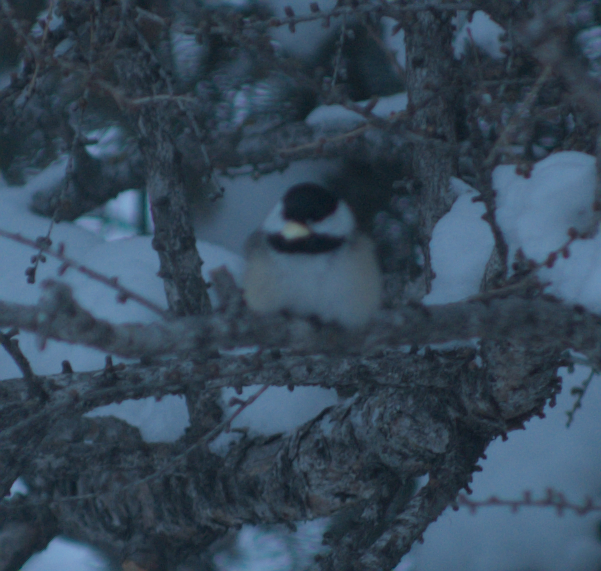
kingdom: Animalia
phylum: Chordata
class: Aves
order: Passeriformes
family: Paridae
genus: Poecile
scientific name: Poecile atricapillus
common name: Black-capped chickadee
